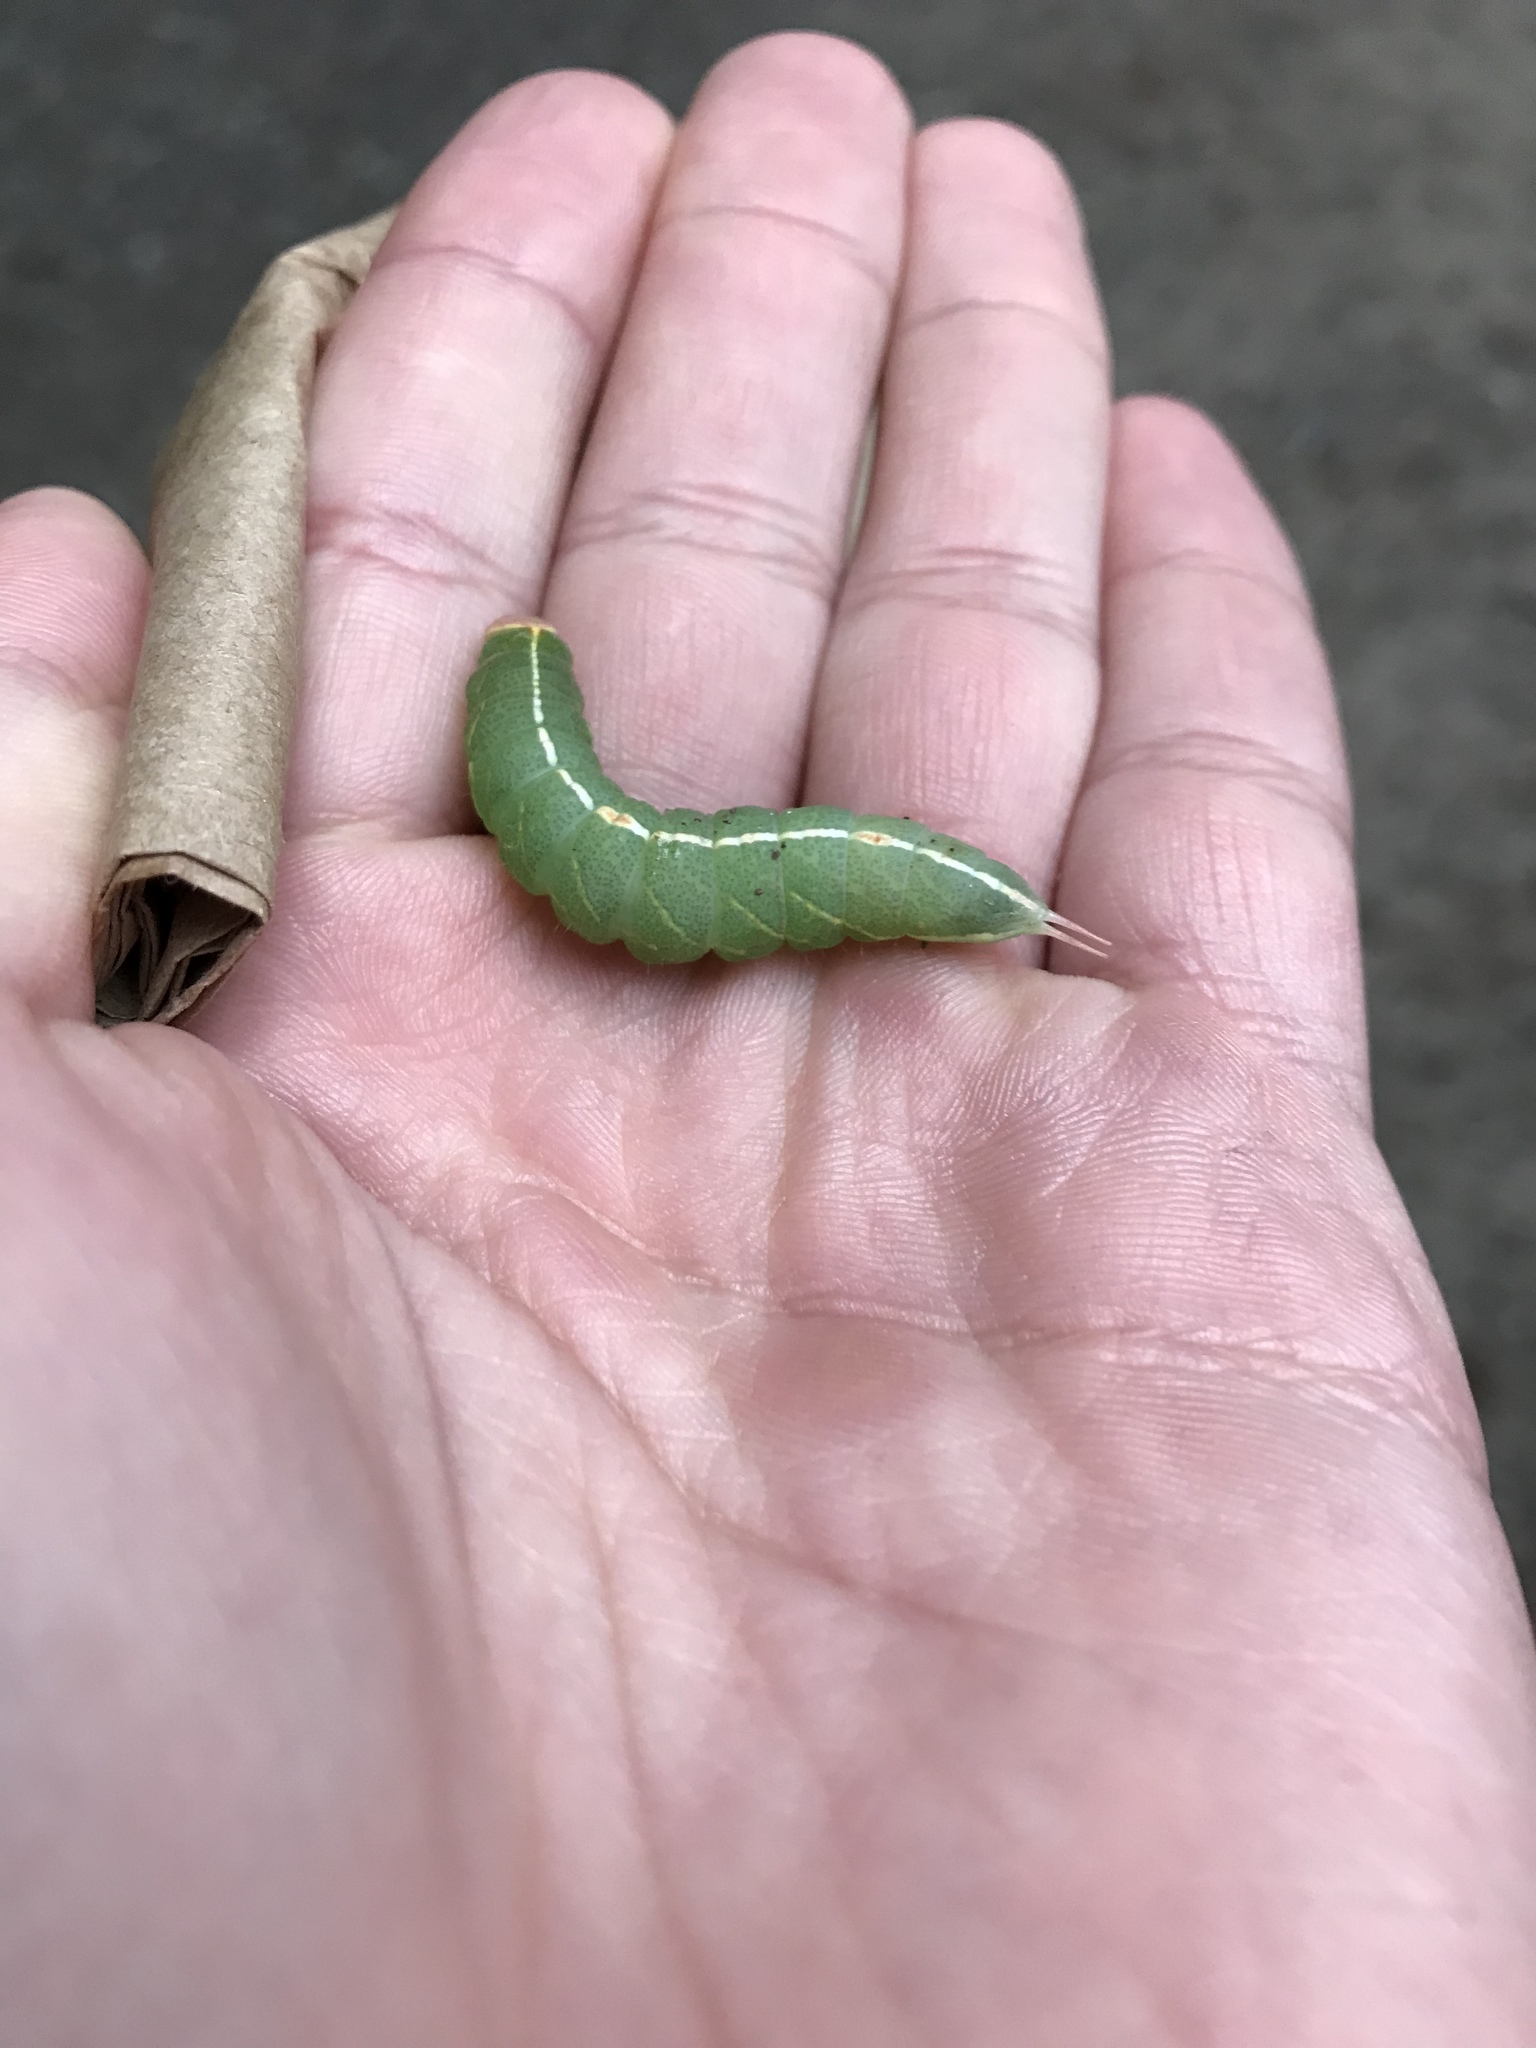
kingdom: Animalia
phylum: Arthropoda
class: Insecta
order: Lepidoptera
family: Notodontidae
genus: Macrurocampa
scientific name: Macrurocampa marthesia
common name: Mottled prominent
